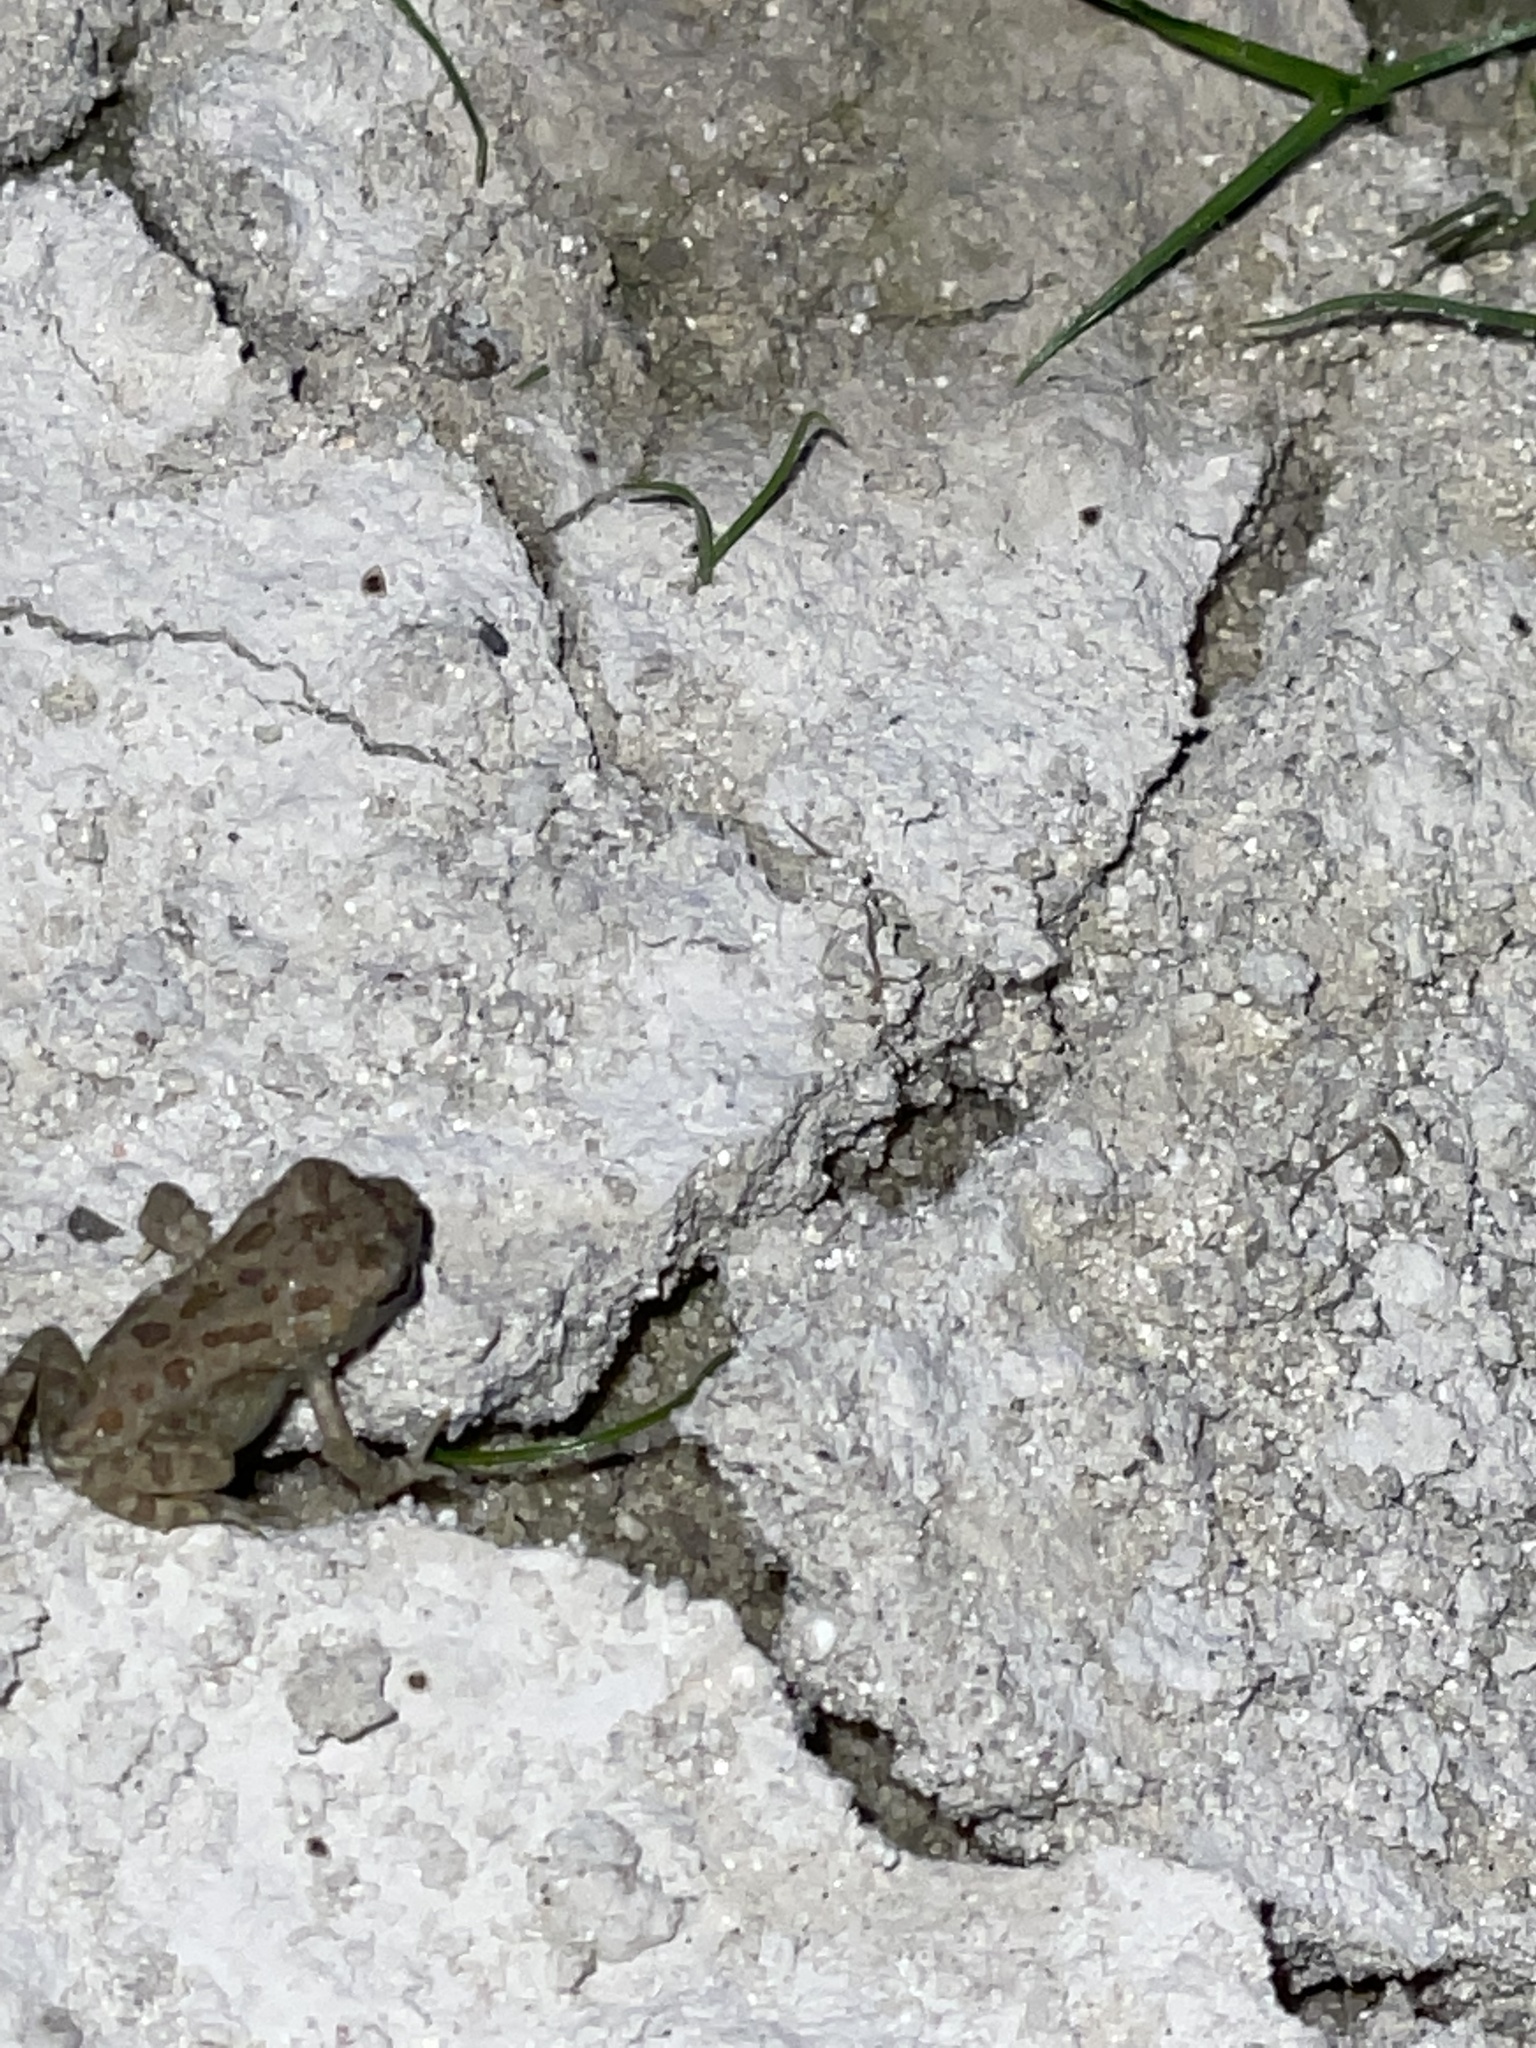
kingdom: Animalia
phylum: Chordata
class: Amphibia
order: Anura
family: Bufonidae
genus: Anaxyrus
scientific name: Anaxyrus fowleri
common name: Fowler's toad
